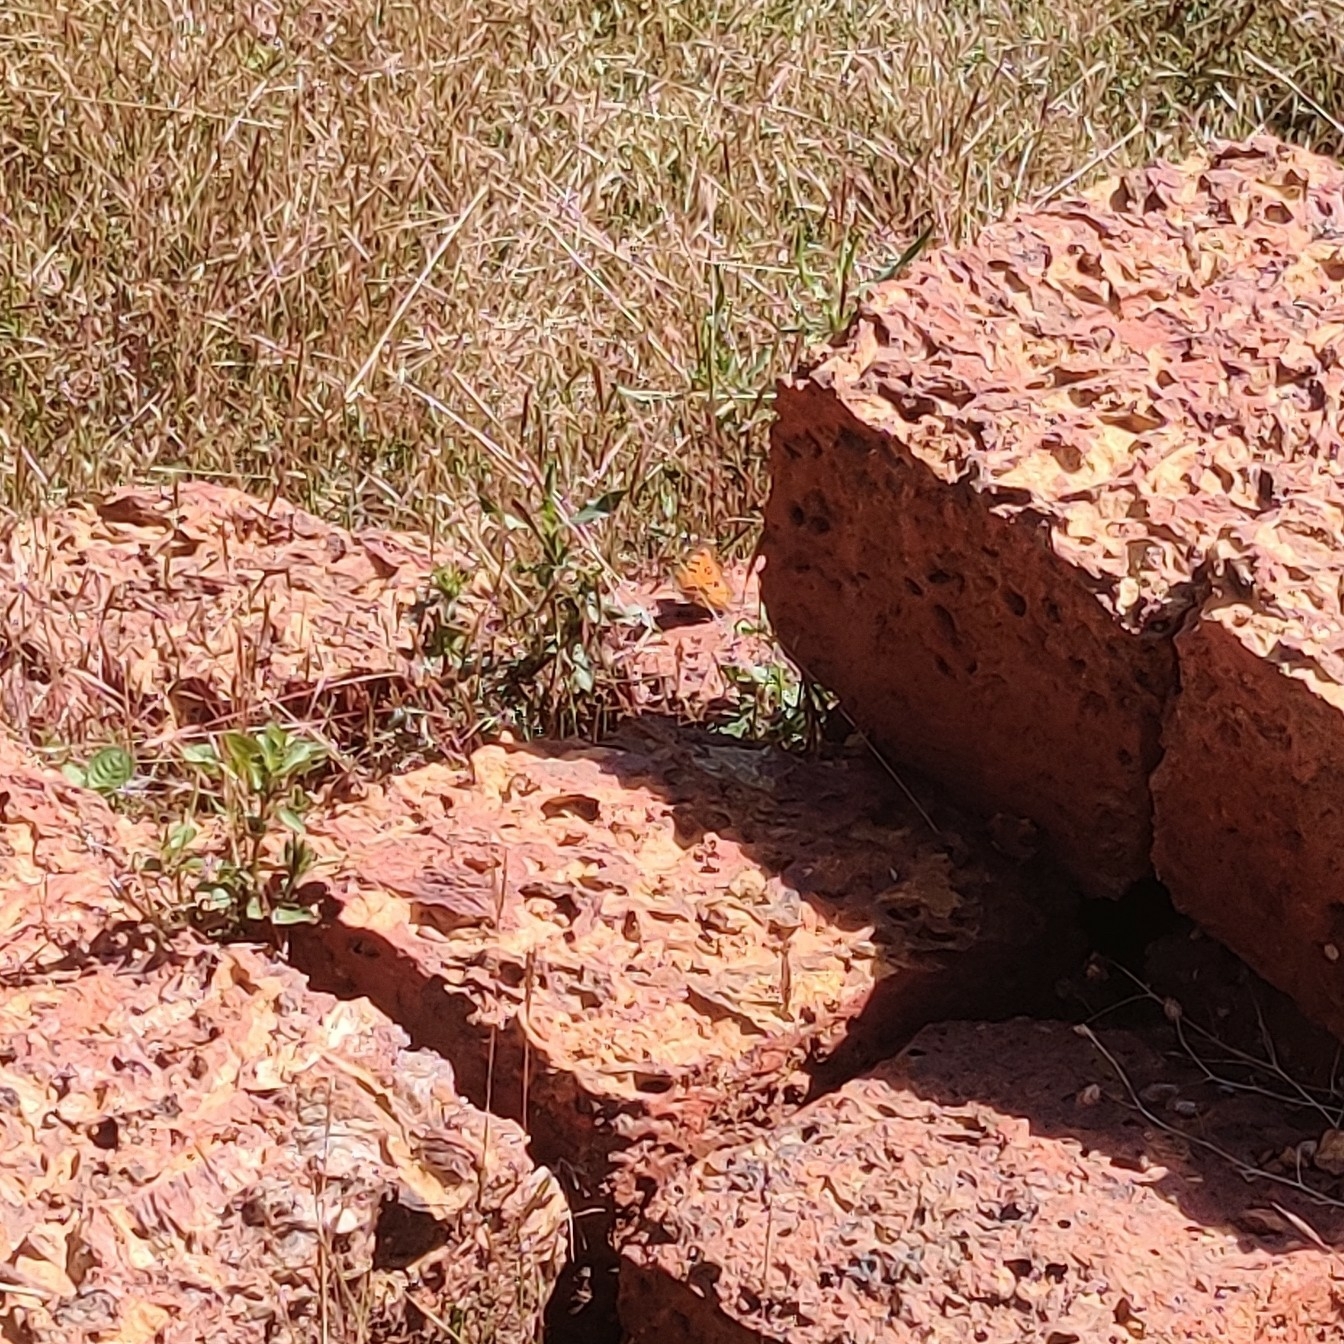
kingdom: Animalia
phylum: Arthropoda
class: Insecta
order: Lepidoptera
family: Nymphalidae
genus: Junonia
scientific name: Junonia almana
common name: Peacock pansy
